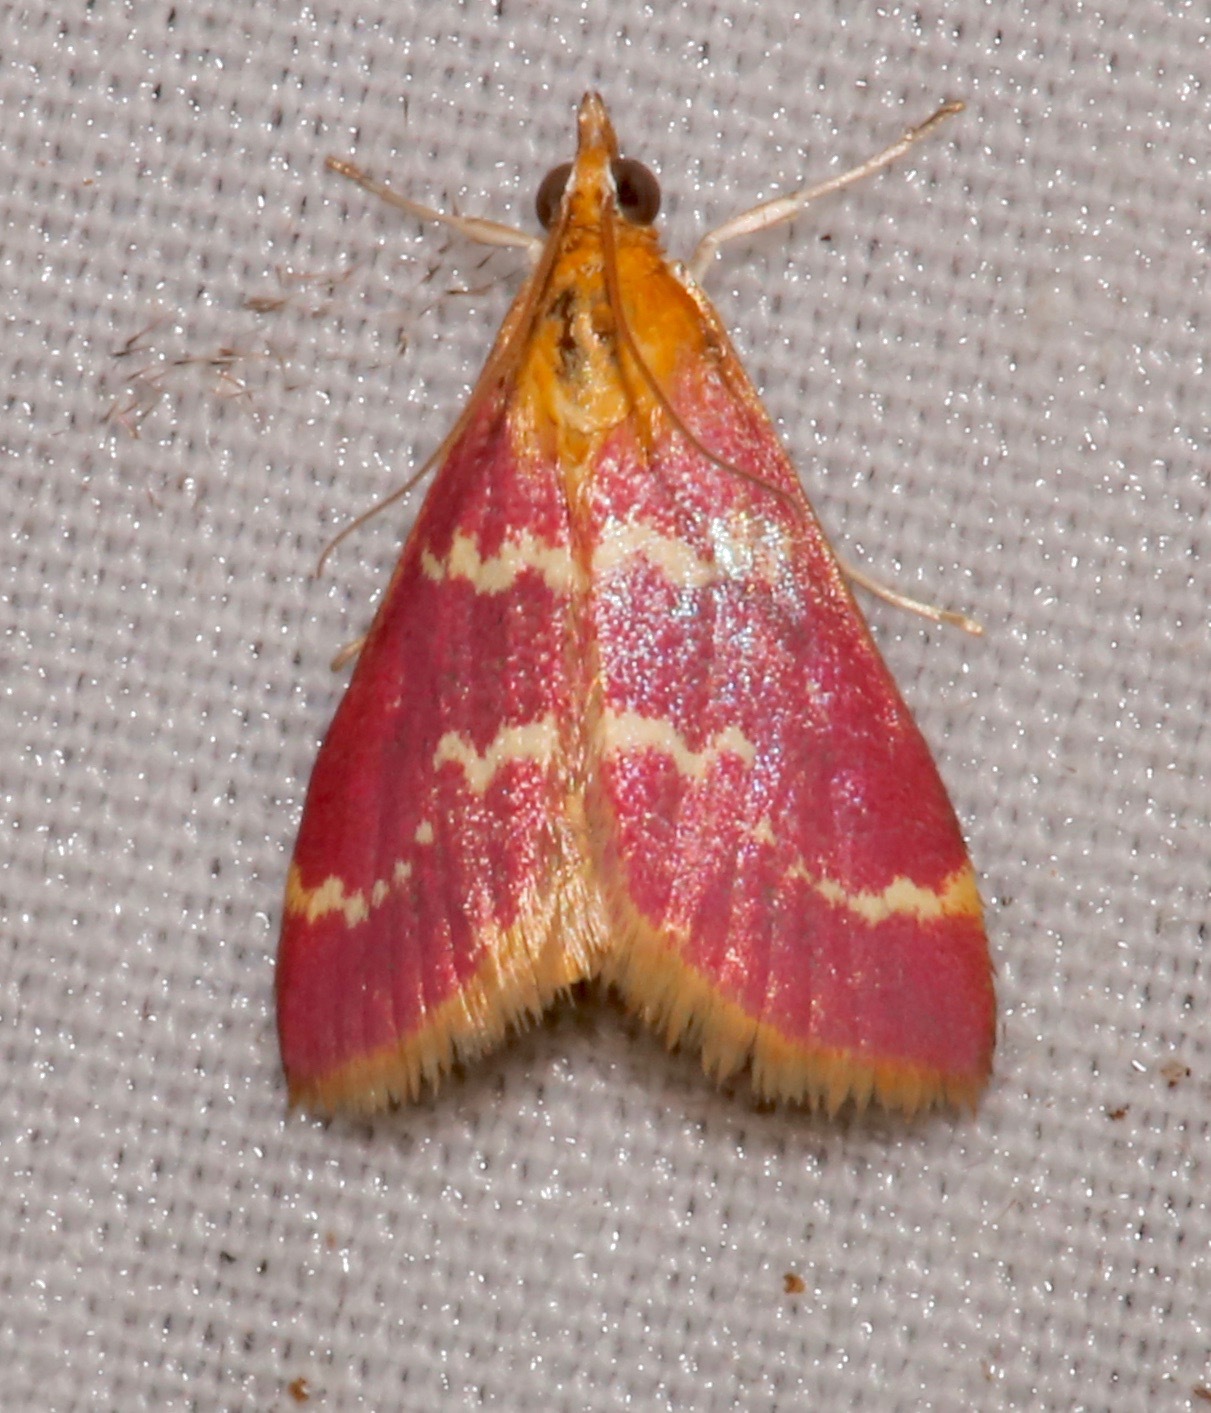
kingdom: Animalia
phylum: Arthropoda
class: Insecta
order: Lepidoptera
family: Crambidae
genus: Pyrausta
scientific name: Pyrausta signatalis
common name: Raspberry pyrausta moth
